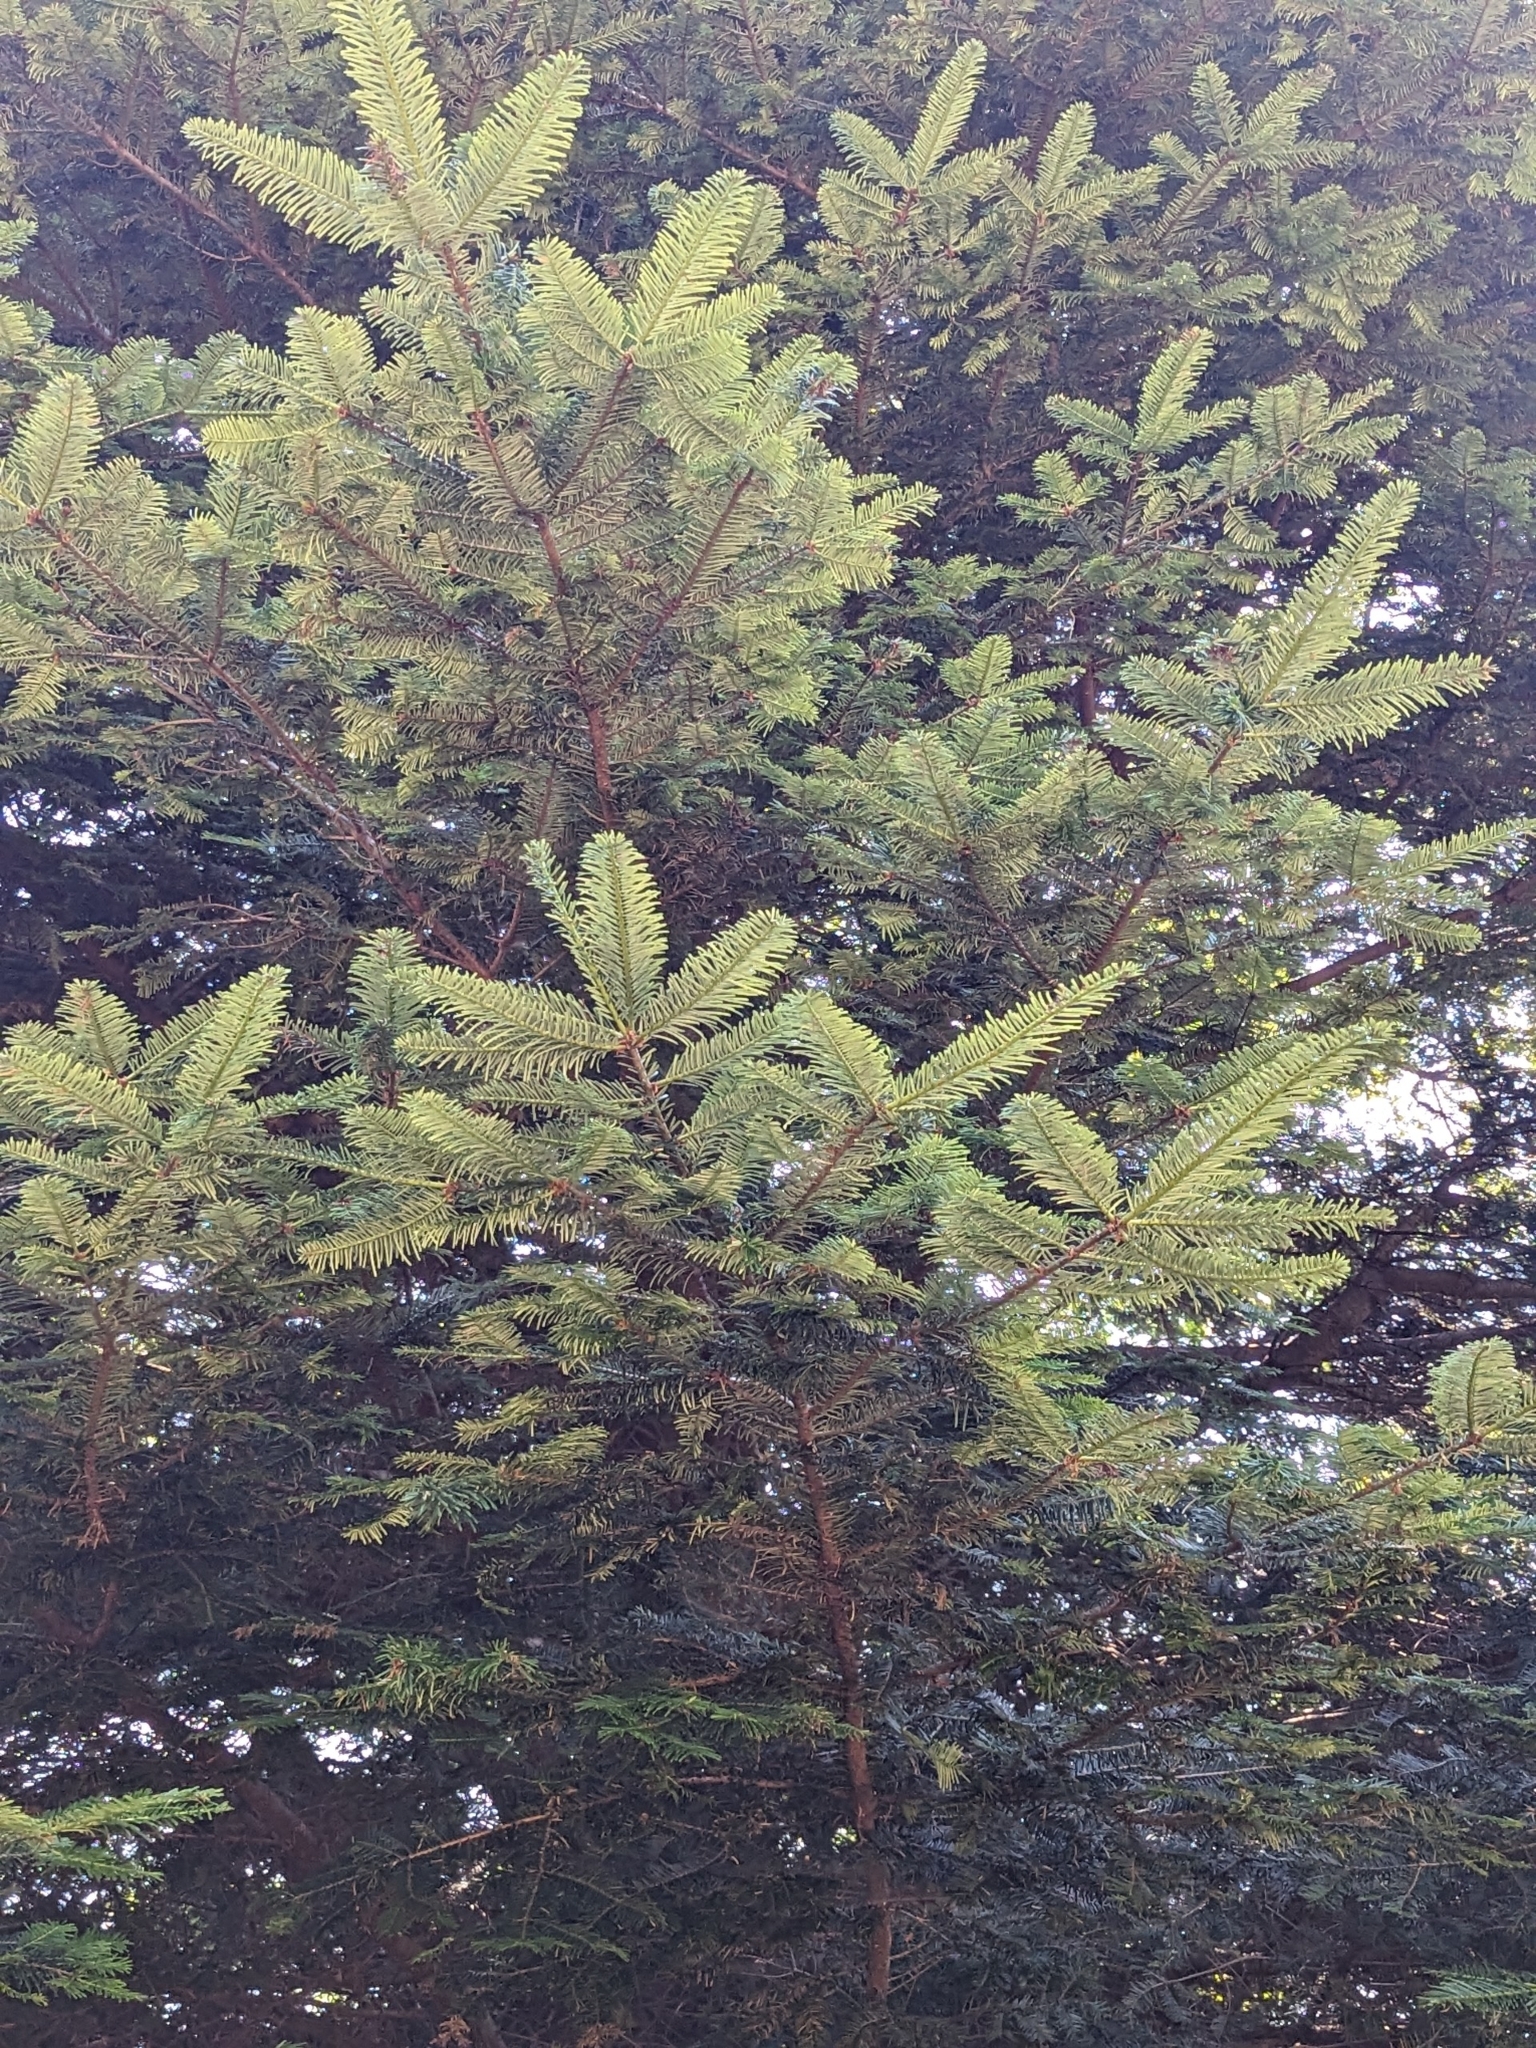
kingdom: Plantae
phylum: Tracheophyta
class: Pinopsida
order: Pinales
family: Pinaceae
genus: Abies
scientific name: Abies grandis
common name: Giant fir
